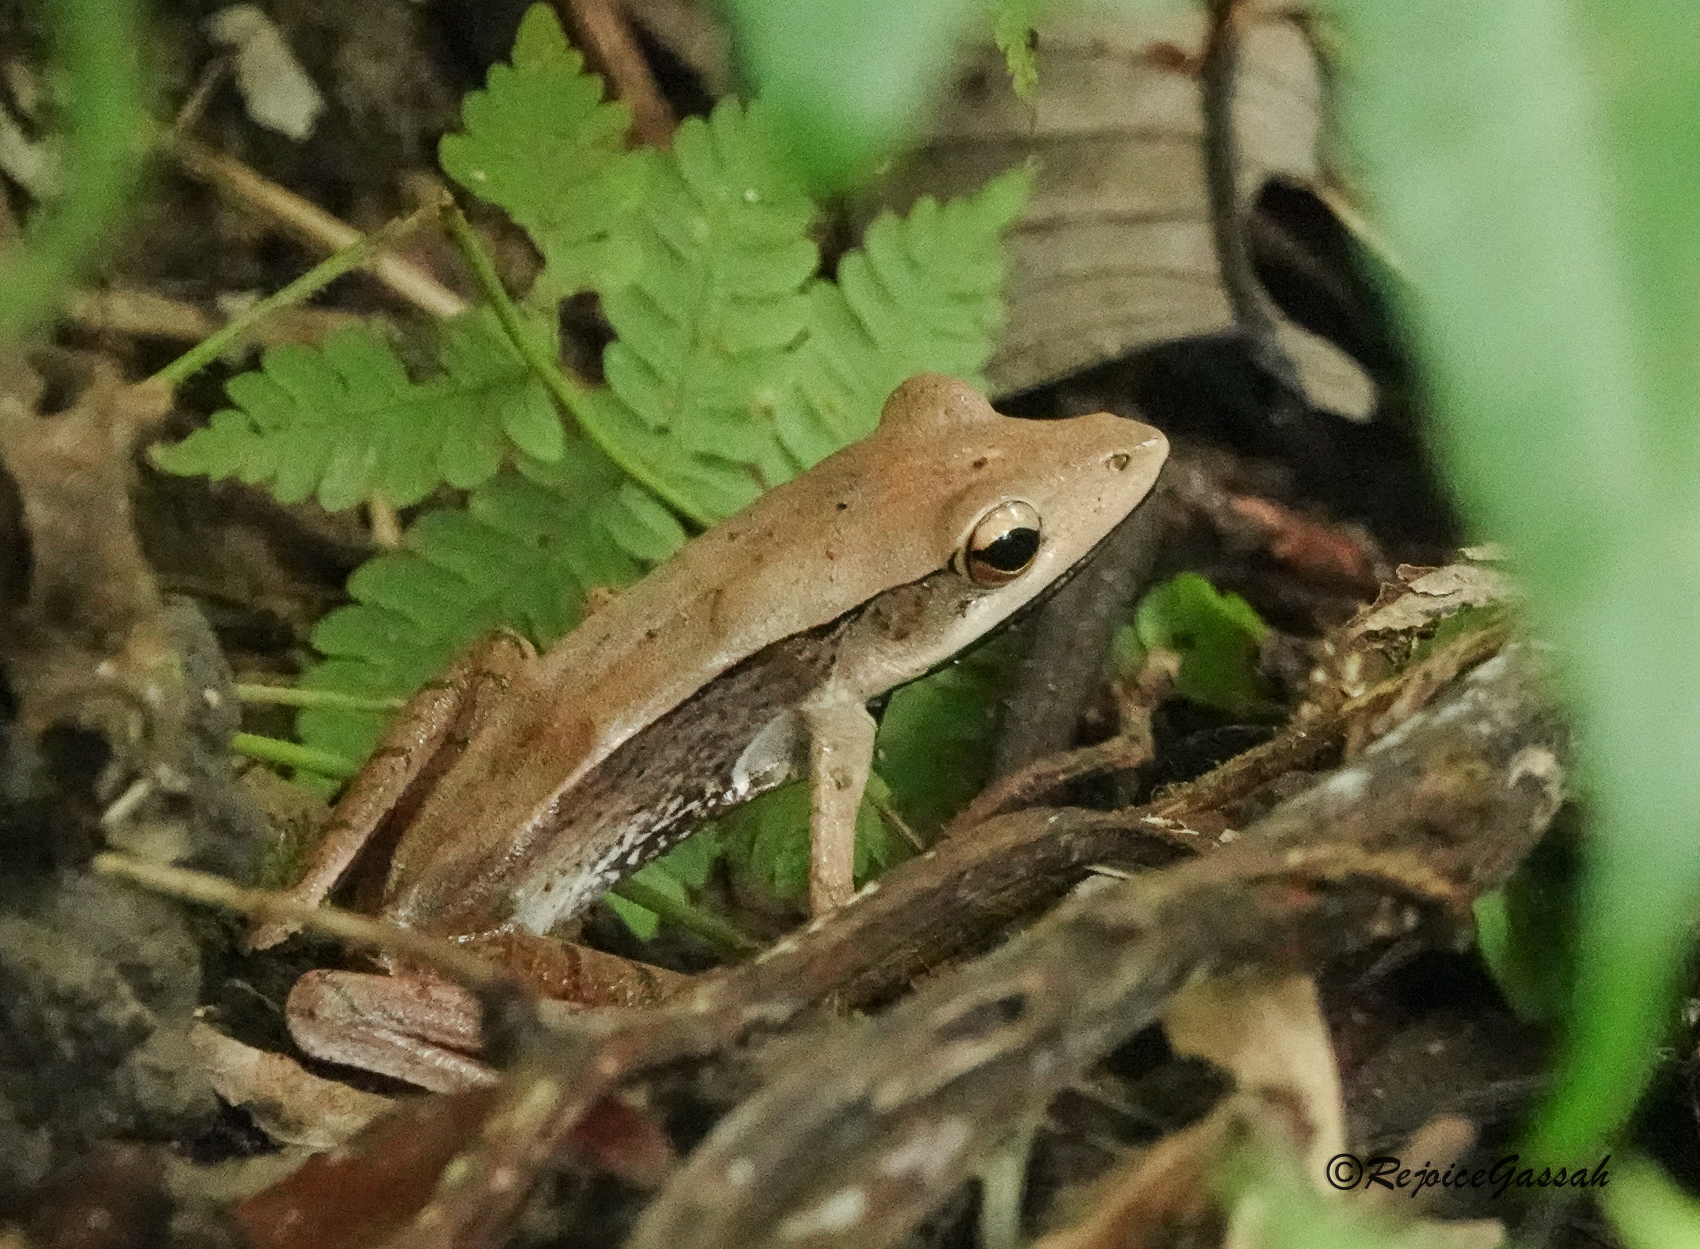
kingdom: Animalia
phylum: Chordata
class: Amphibia
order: Anura
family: Ranidae
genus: Clinotarsus
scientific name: Clinotarsus alticola
